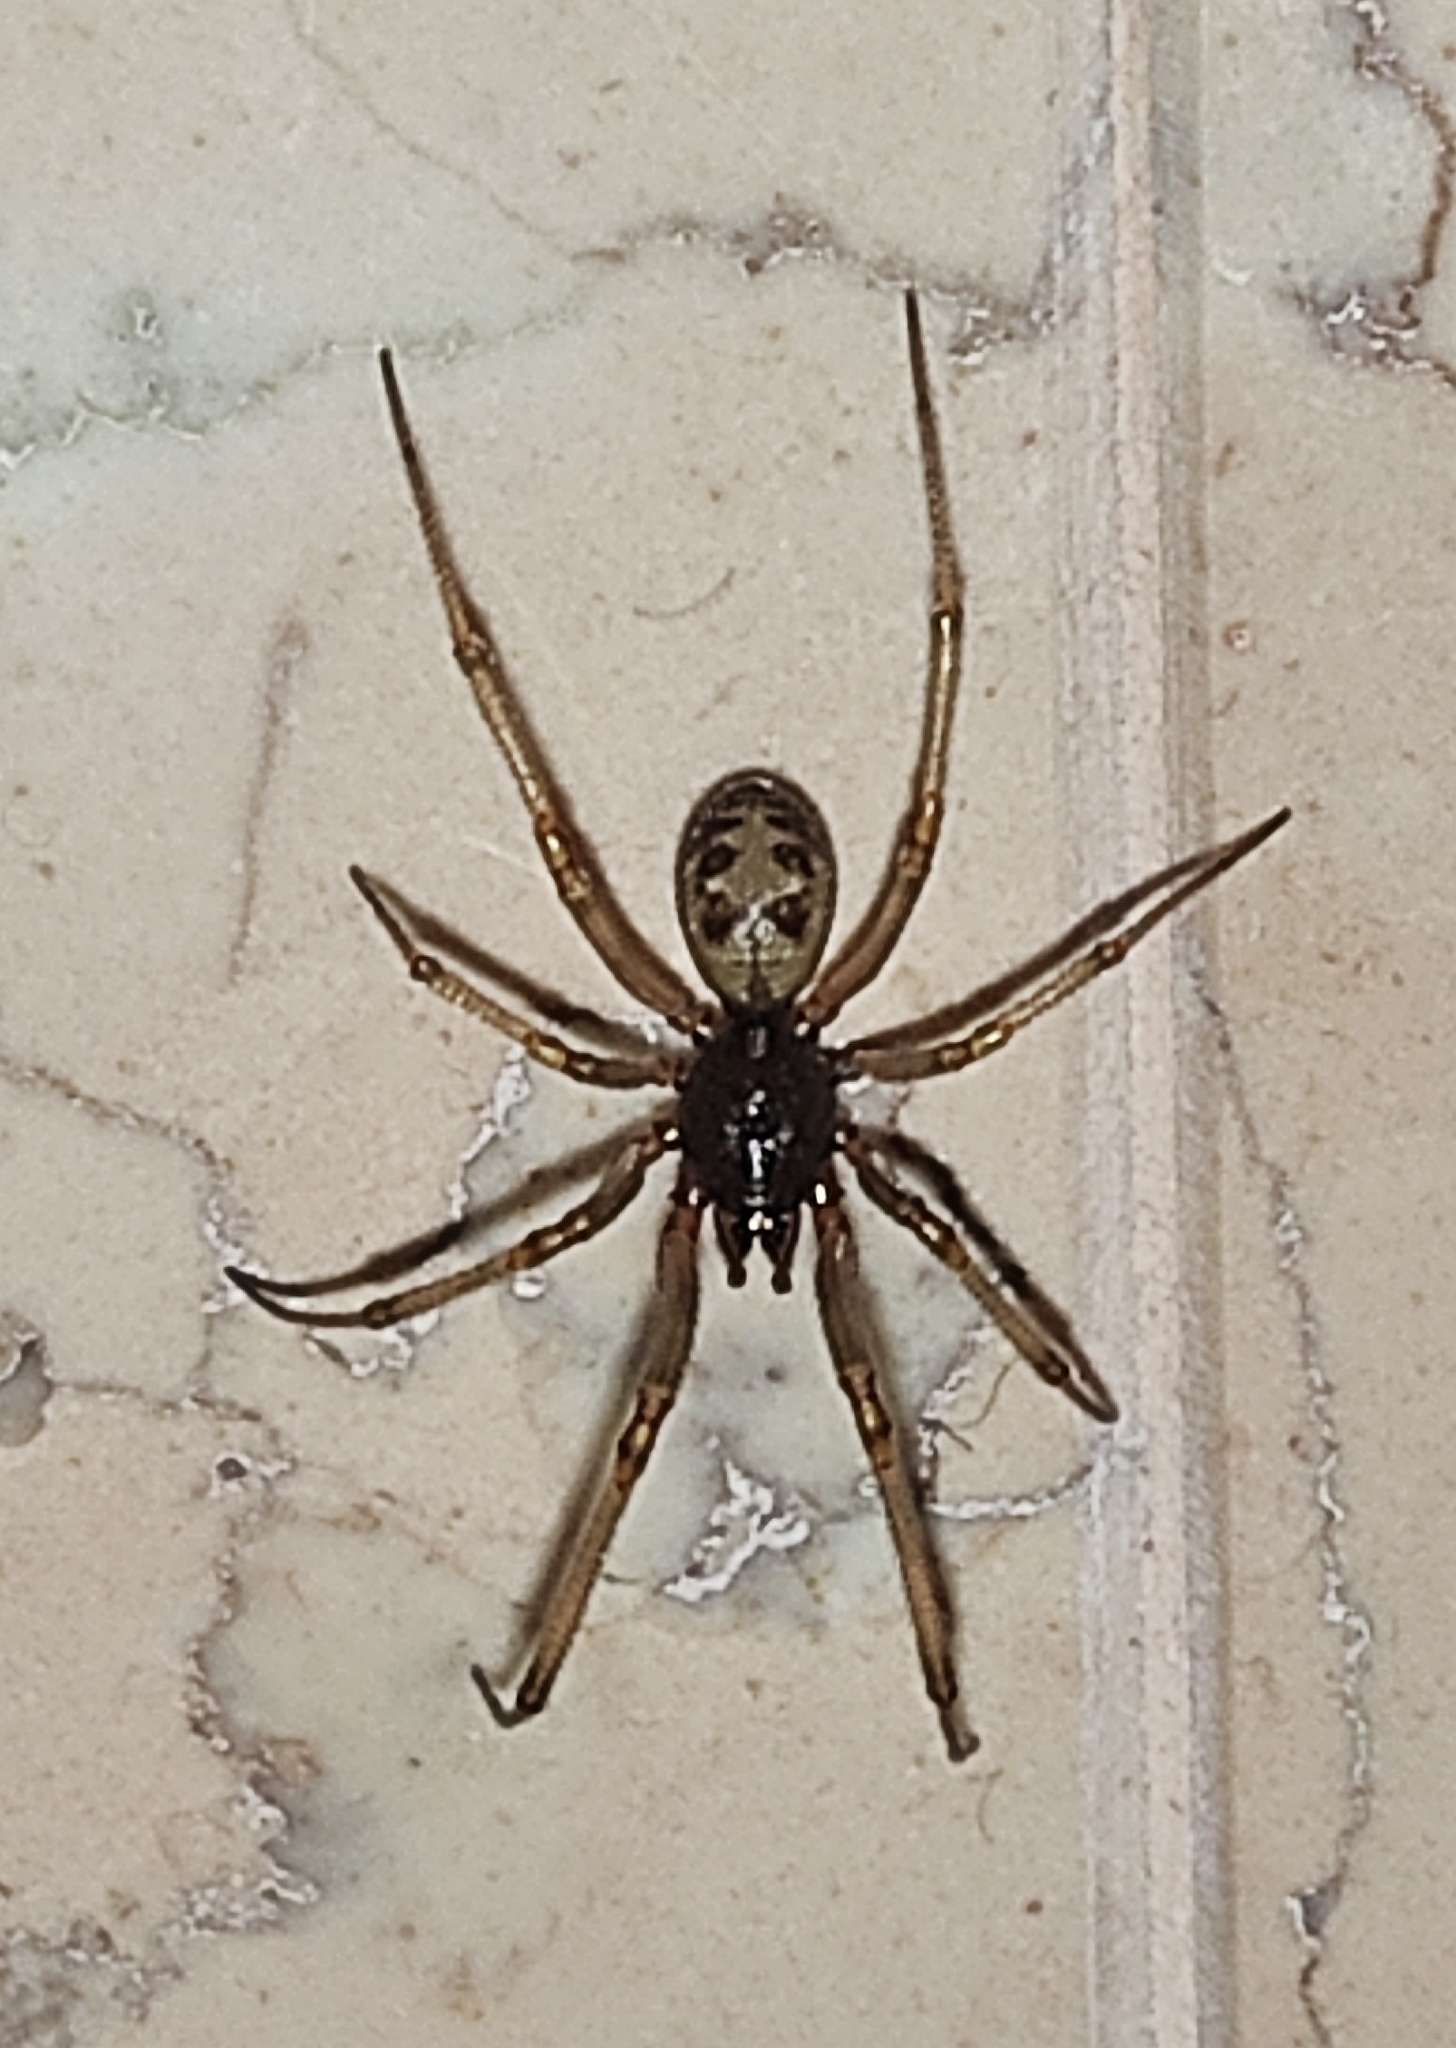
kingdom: Animalia
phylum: Arthropoda
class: Arachnida
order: Araneae
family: Theridiidae
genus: Steatoda
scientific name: Steatoda triangulosa
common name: Triangulate bud spider
